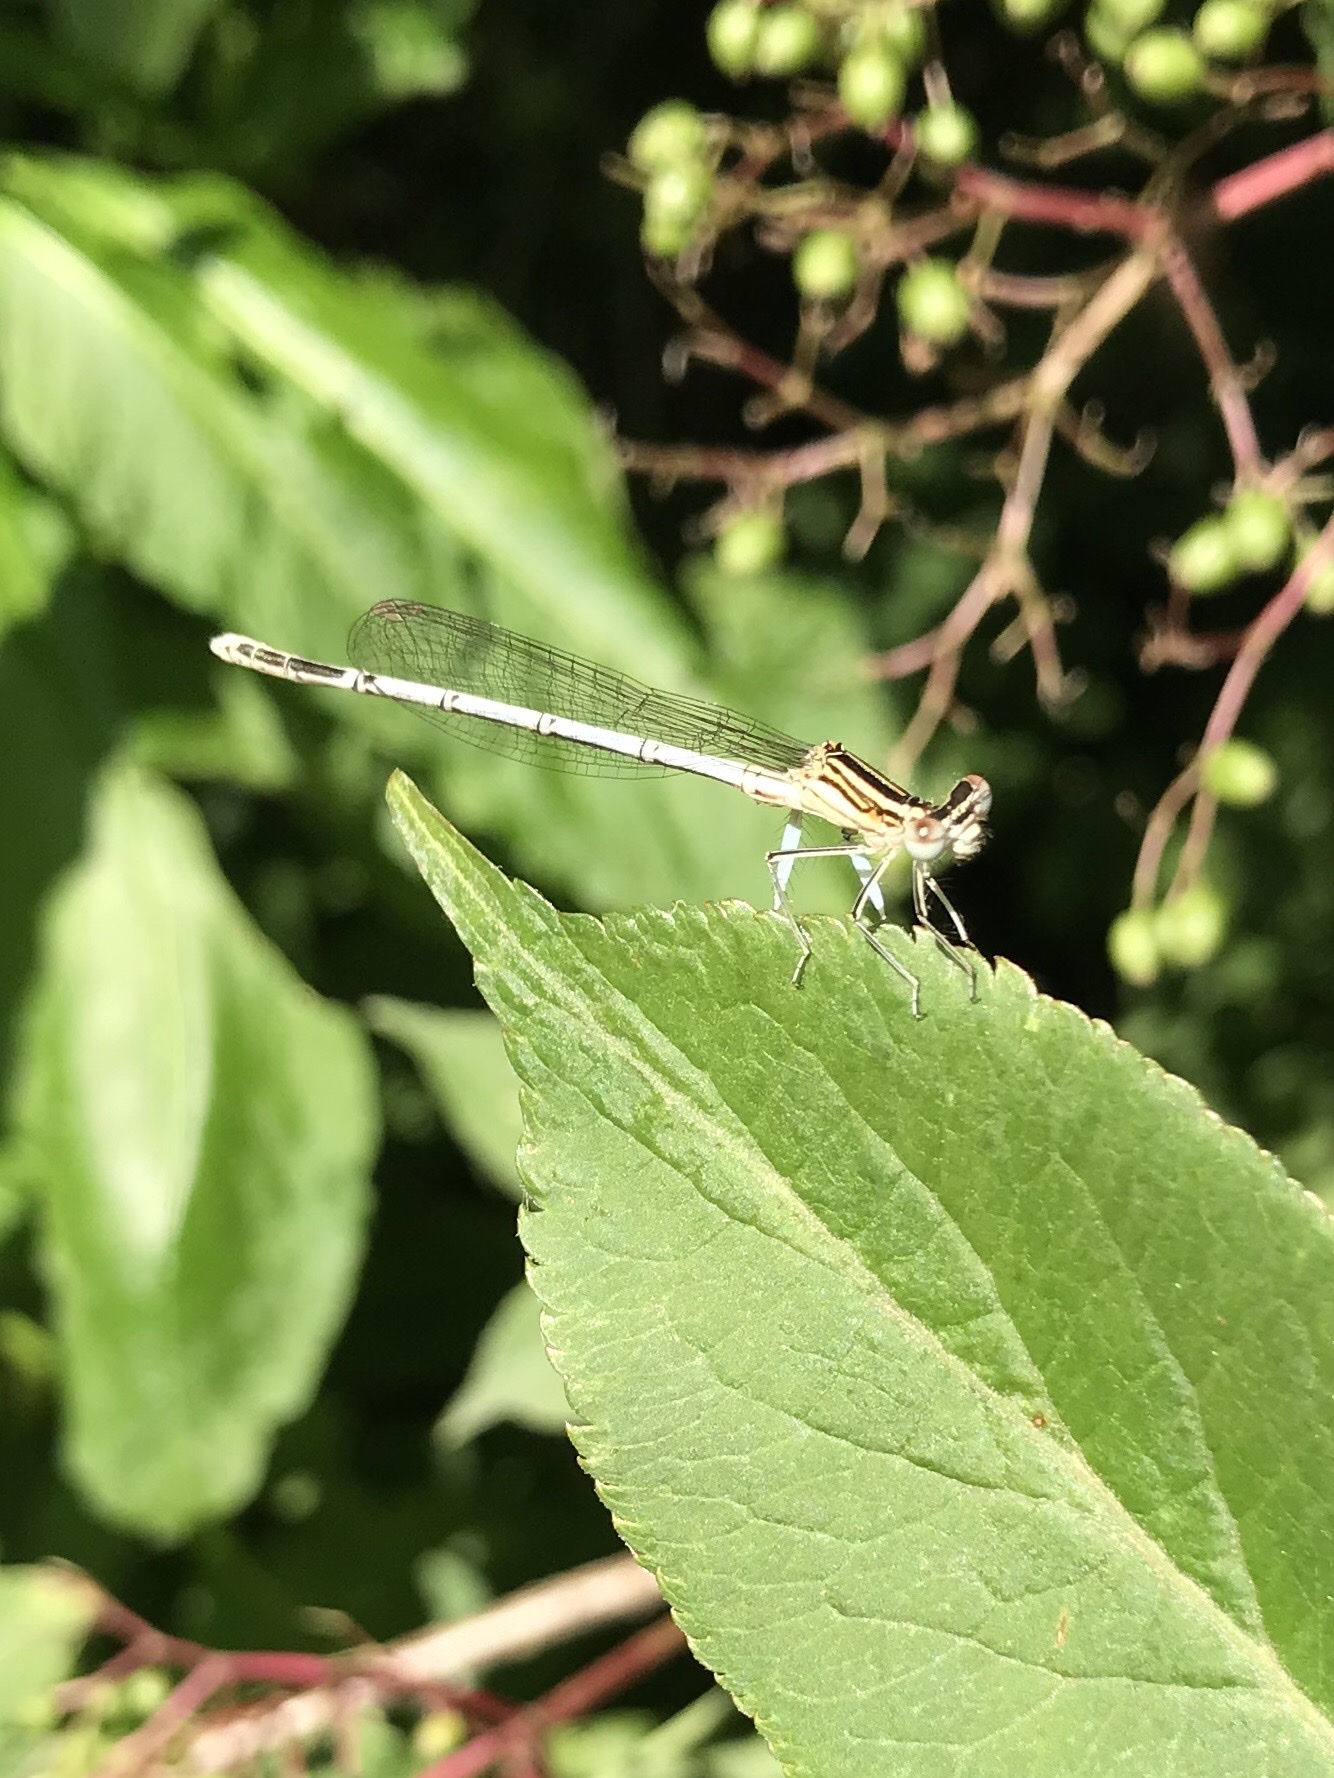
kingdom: Animalia
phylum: Arthropoda
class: Insecta
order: Odonata
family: Platycnemididae
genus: Platycnemis
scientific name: Platycnemis pennipes
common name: White-legged damselfly
